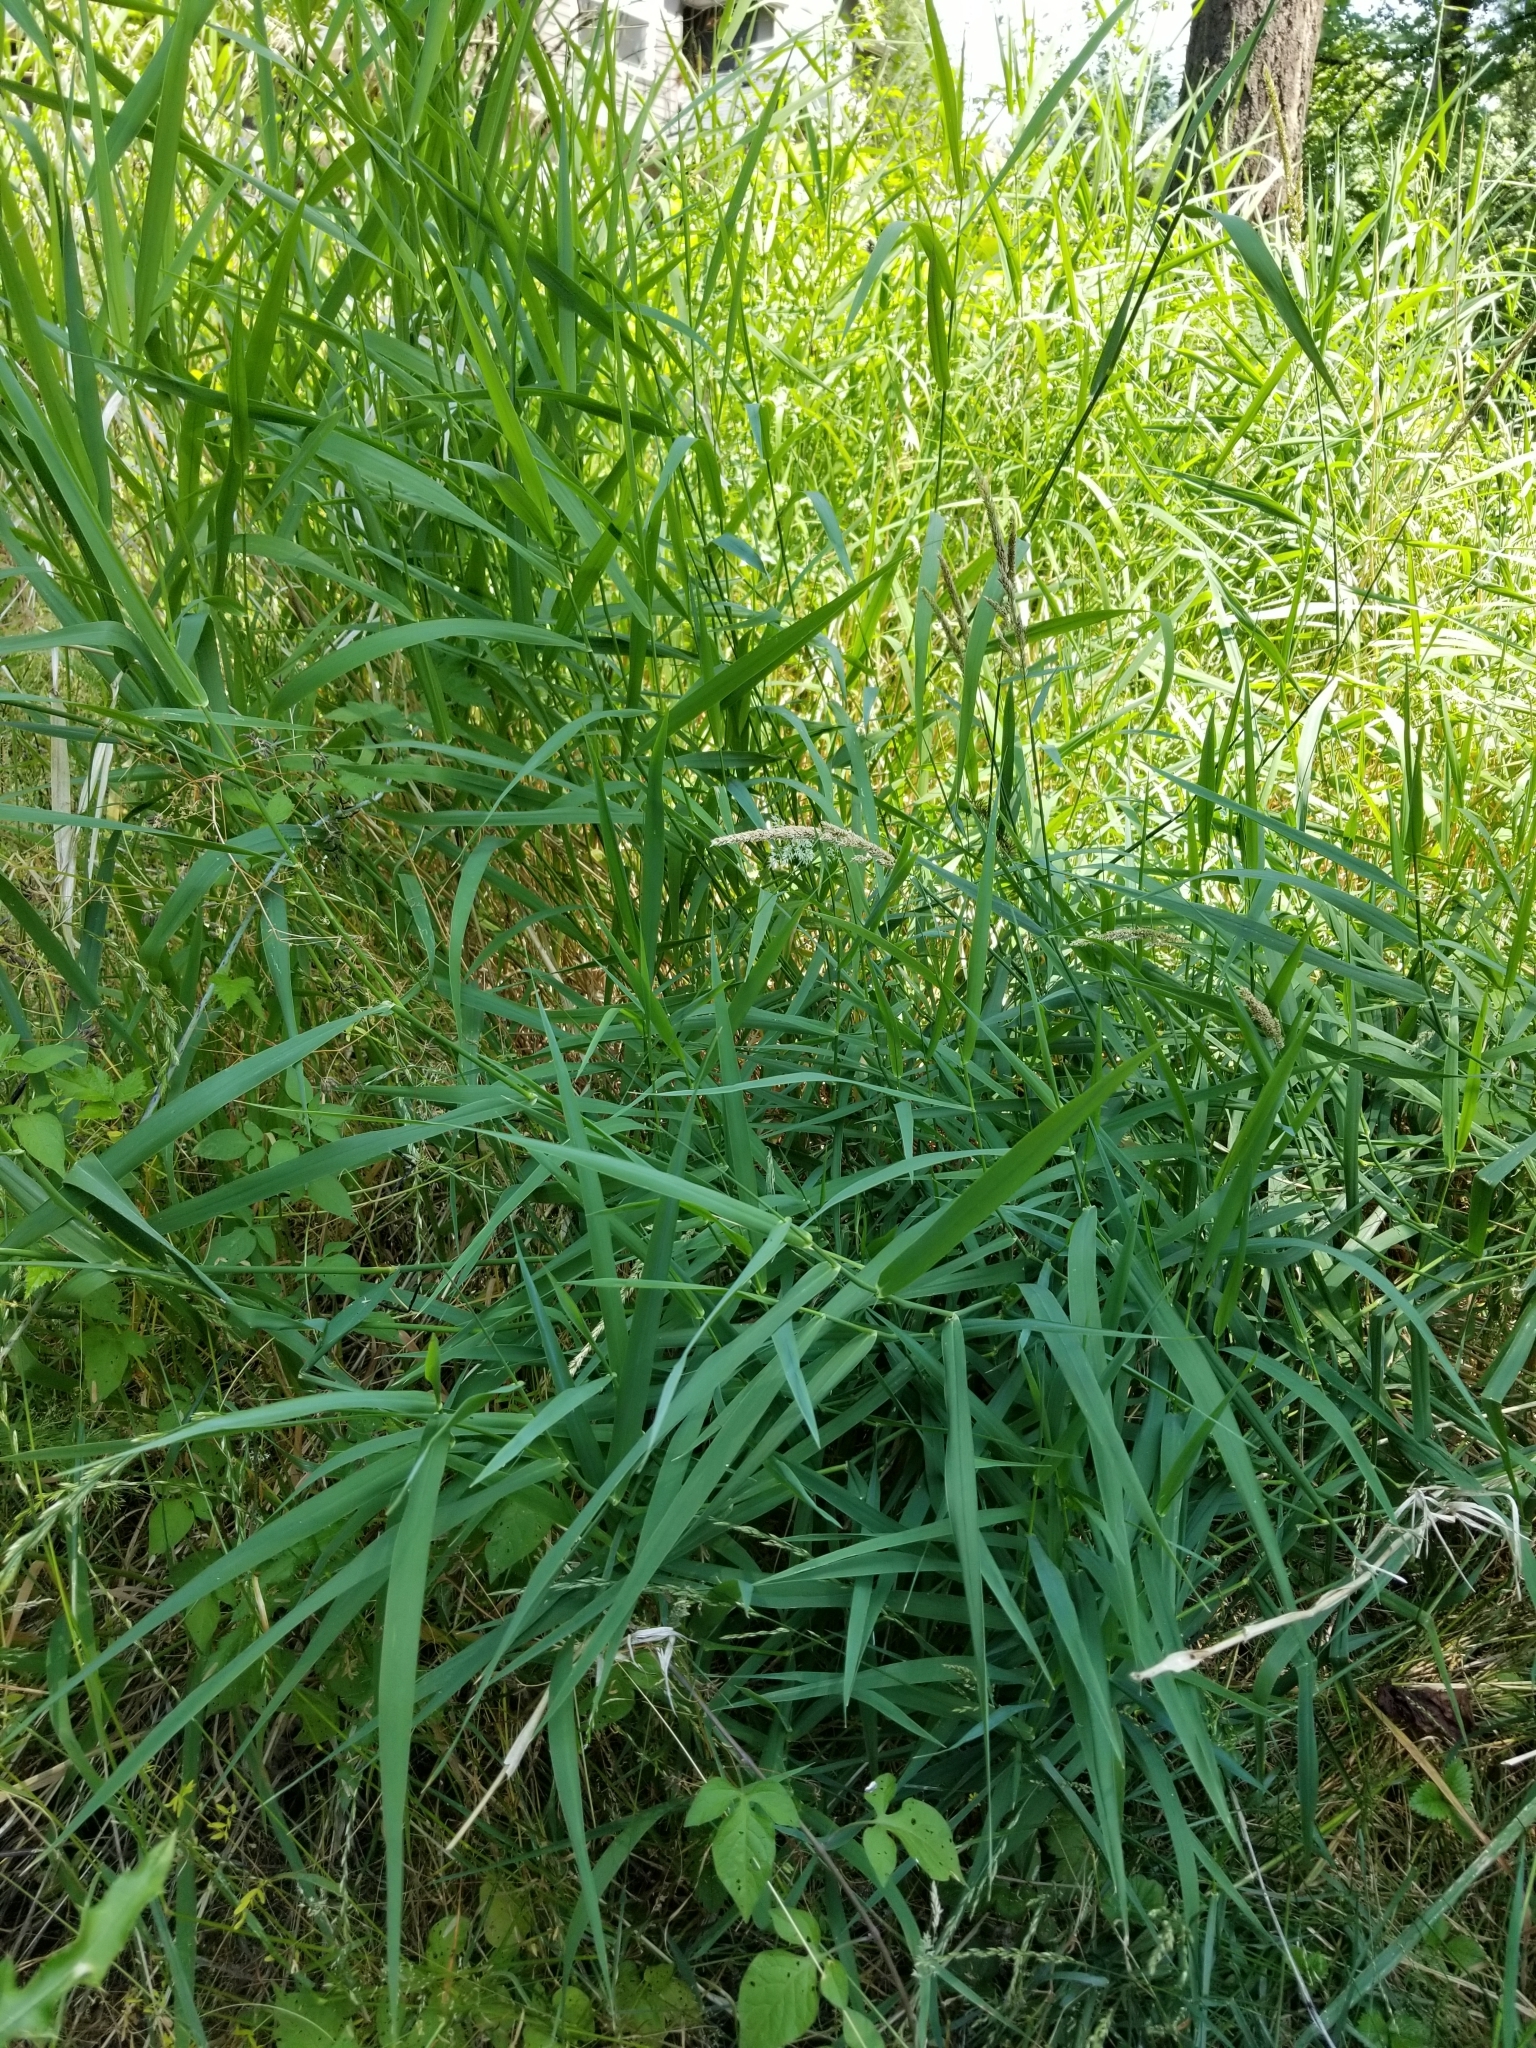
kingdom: Plantae
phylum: Tracheophyta
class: Liliopsida
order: Poales
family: Poaceae
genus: Phalaris
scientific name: Phalaris arundinacea
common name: Reed canary-grass
